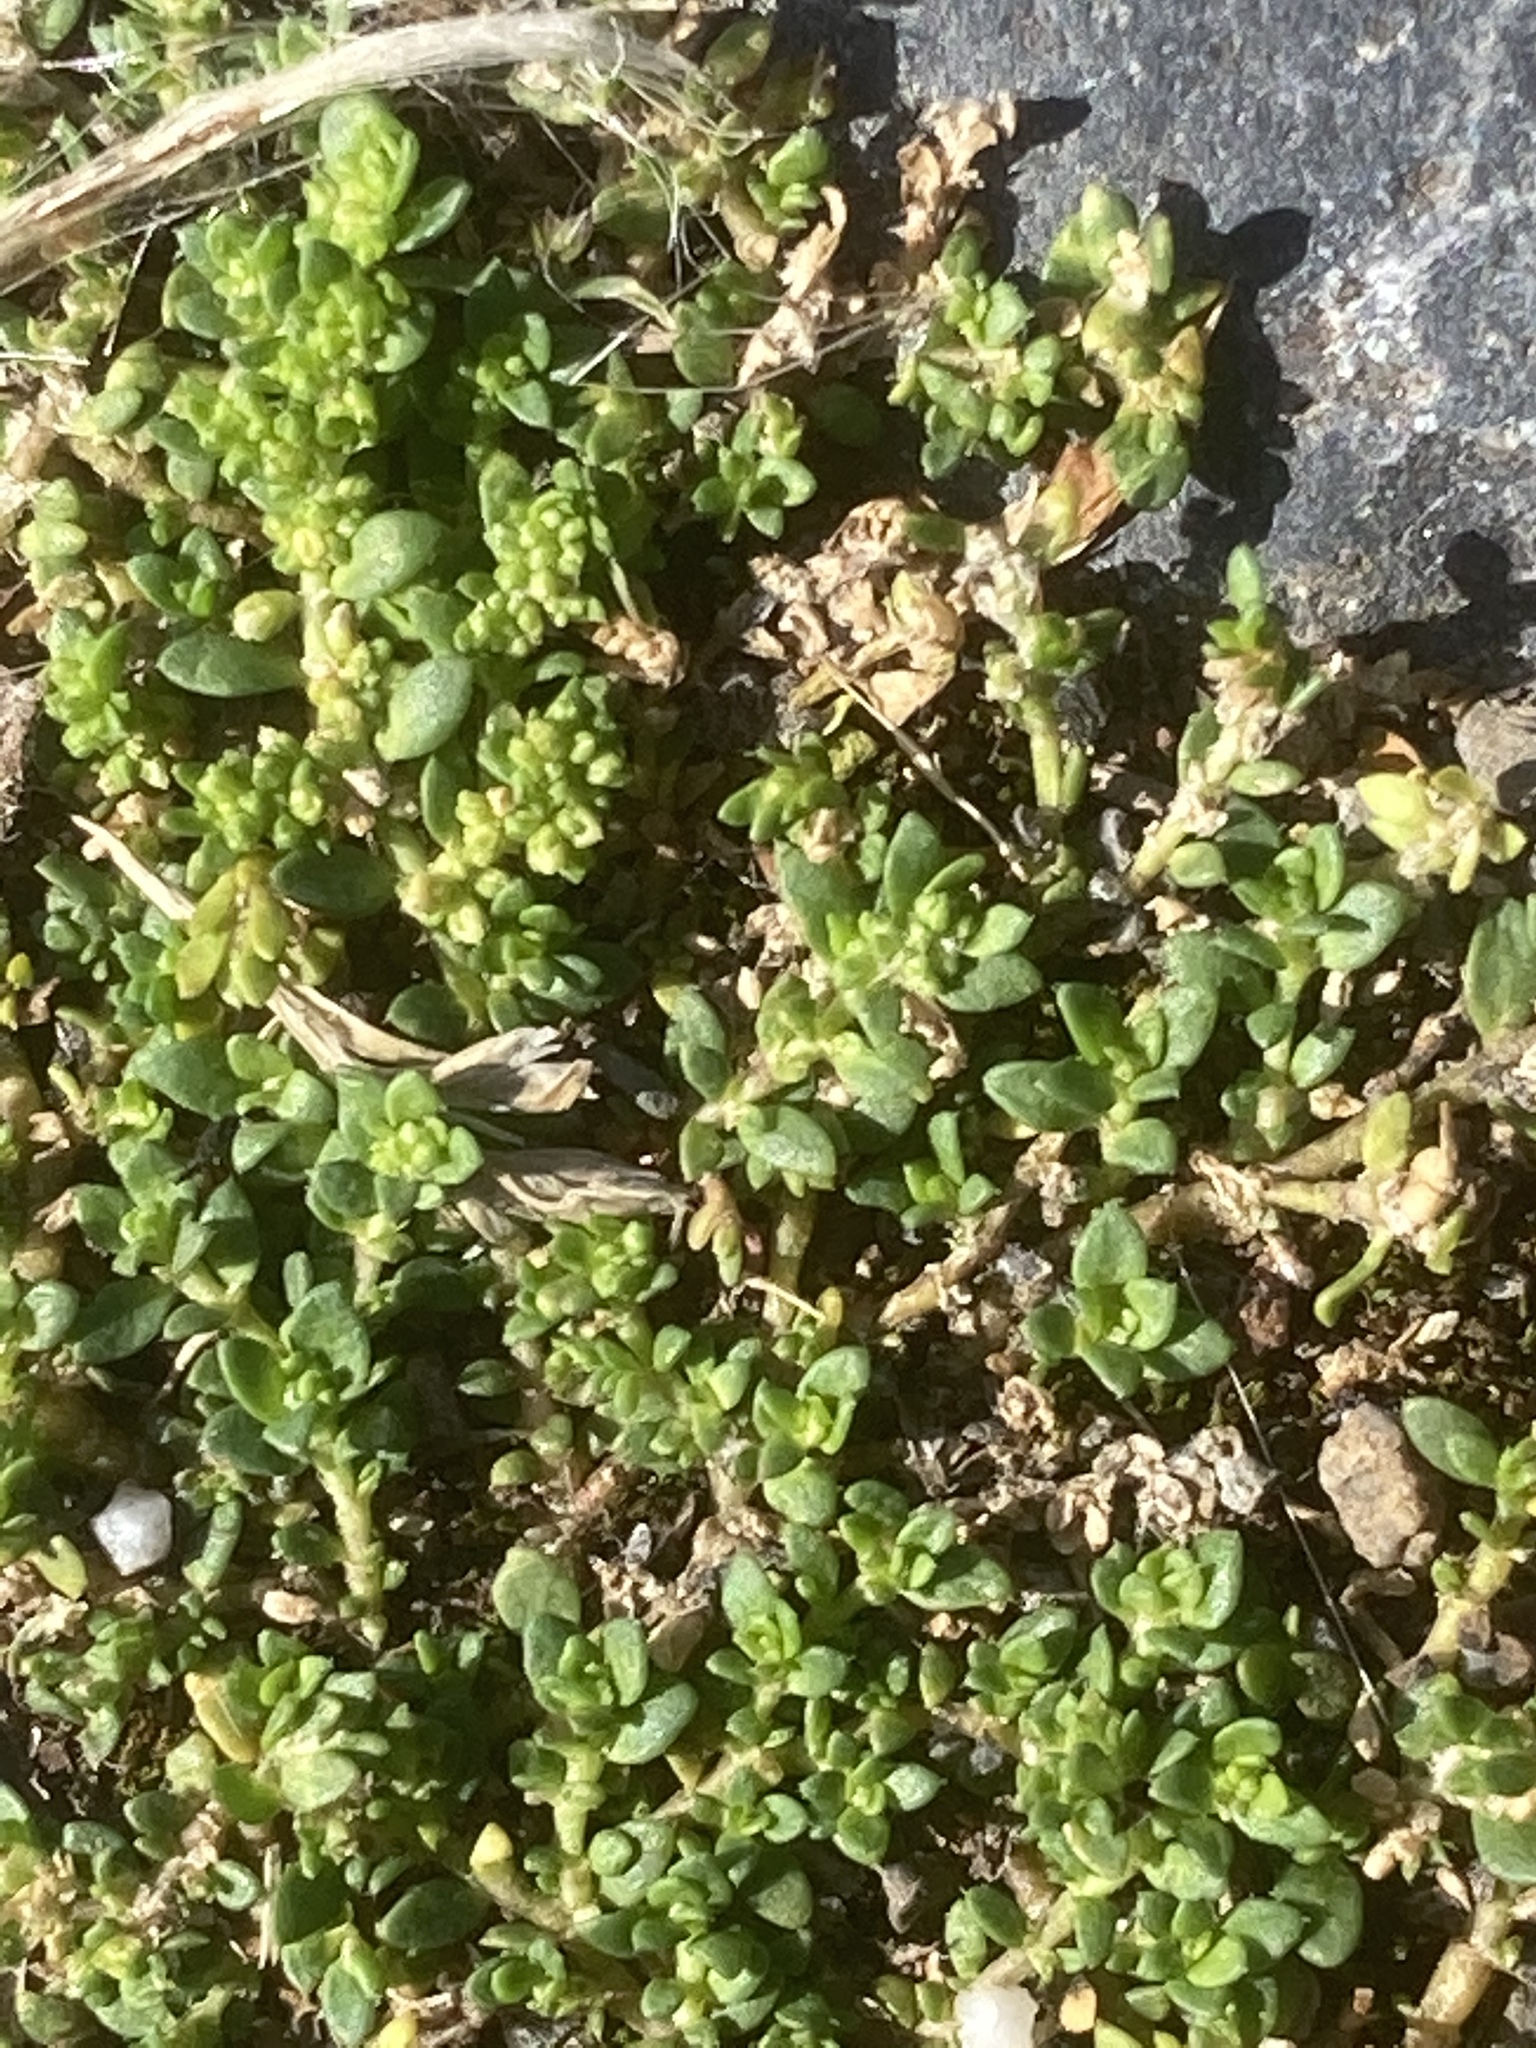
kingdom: Plantae
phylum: Tracheophyta
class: Magnoliopsida
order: Caryophyllales
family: Caryophyllaceae
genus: Herniaria
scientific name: Herniaria glabra
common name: Smooth rupturewort
